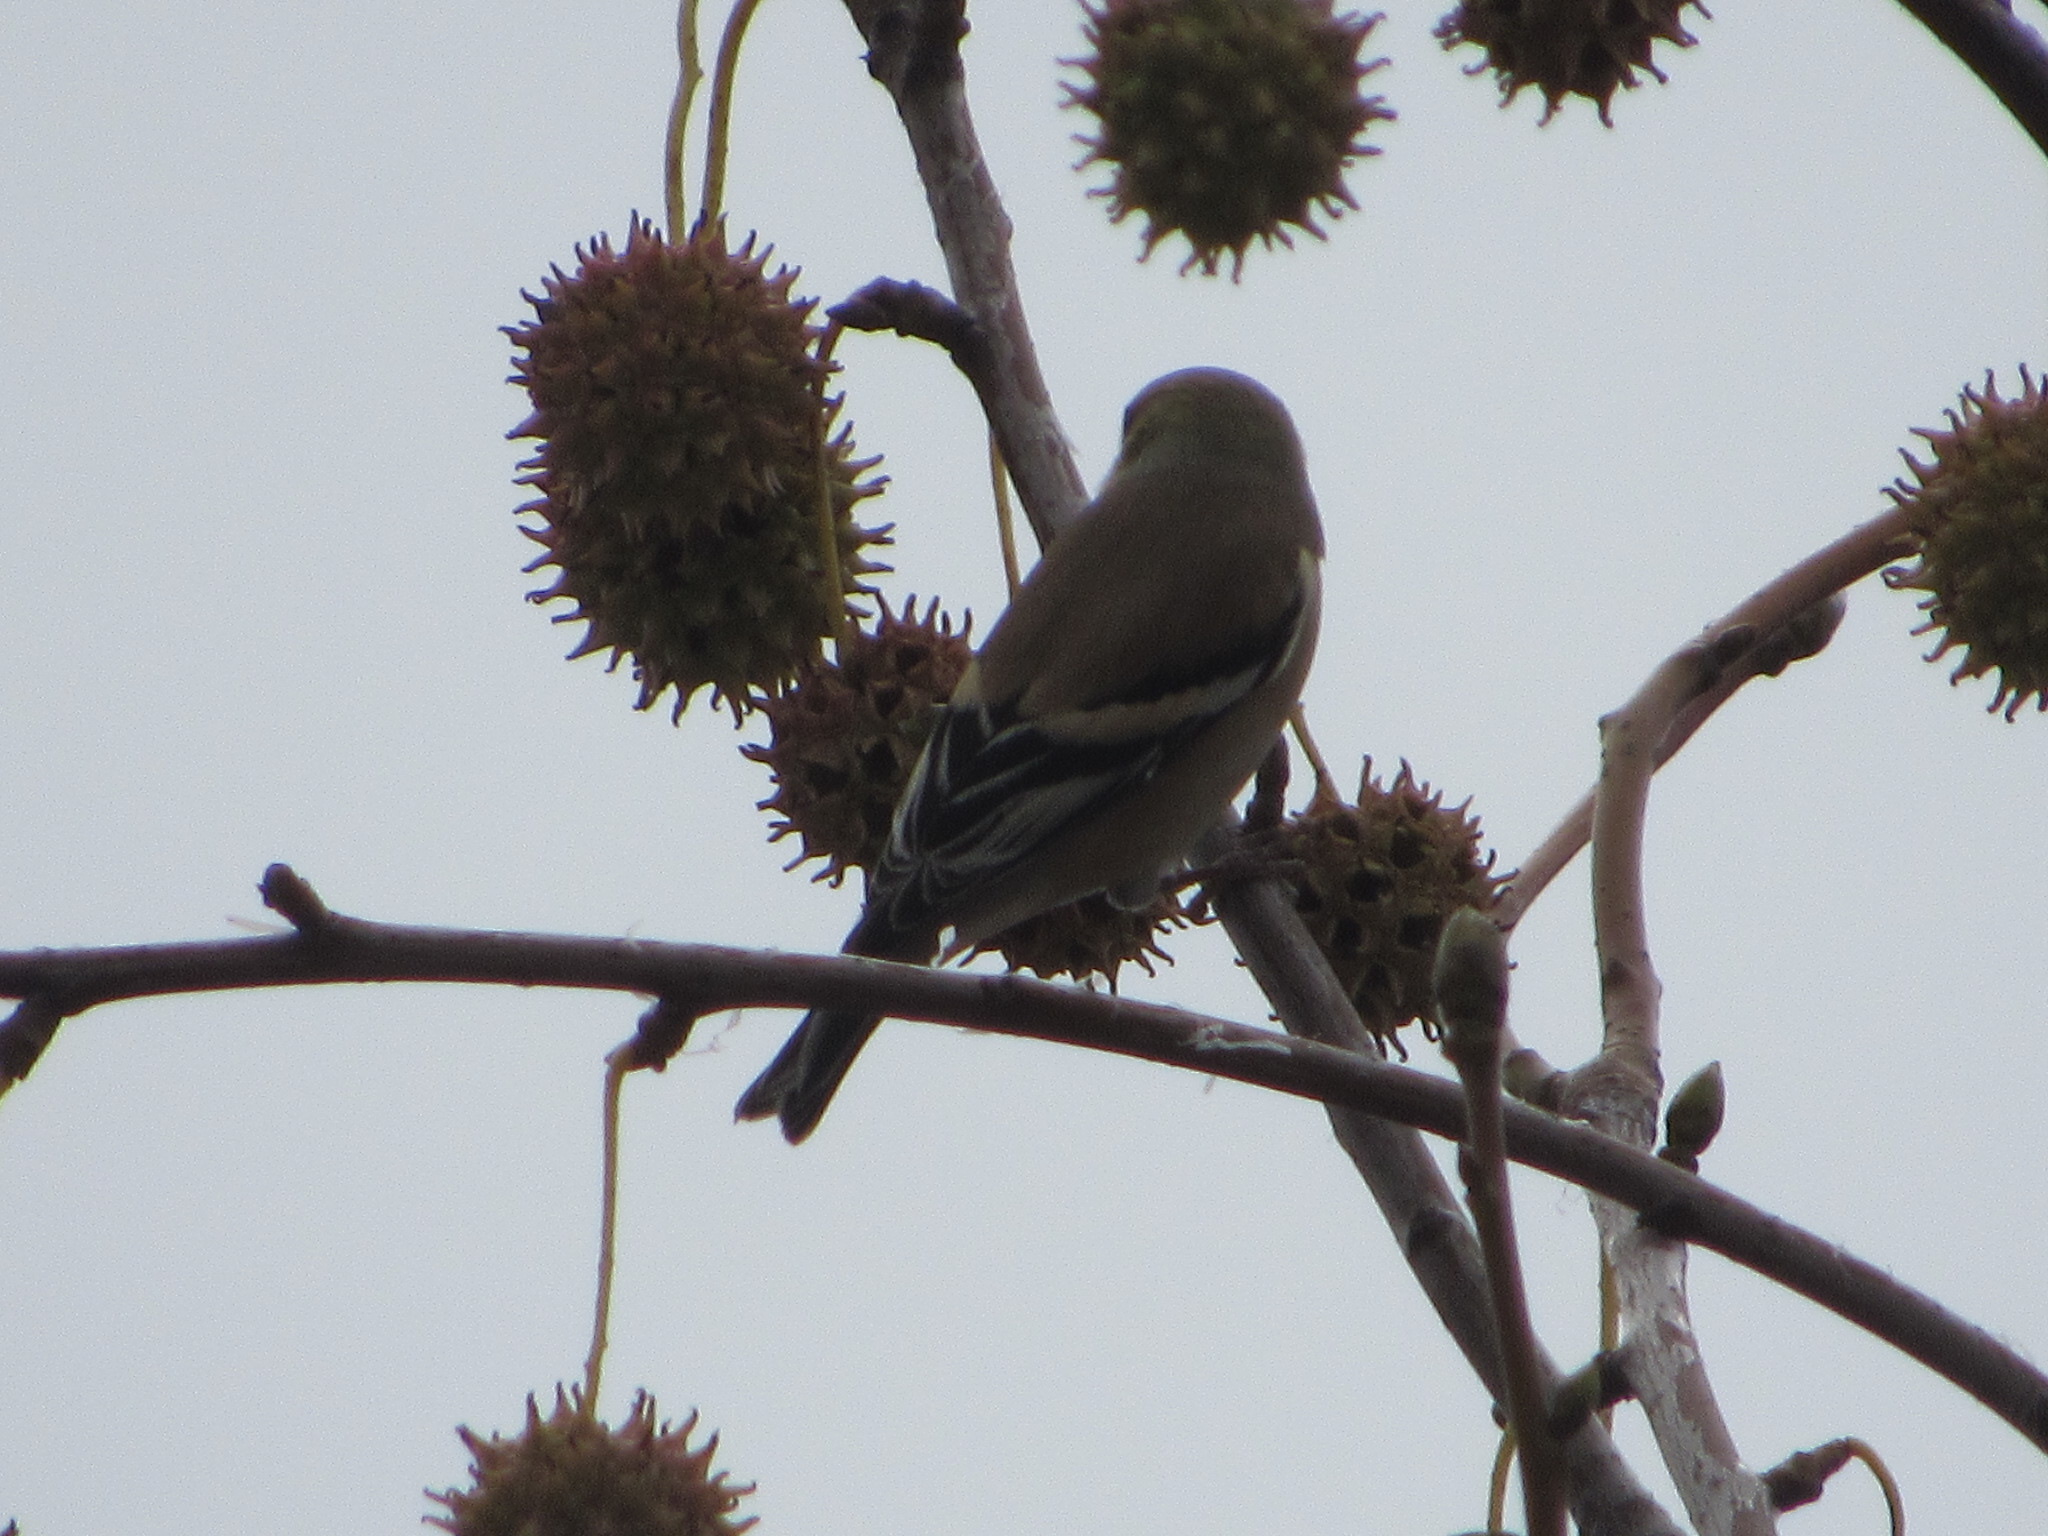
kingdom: Animalia
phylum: Chordata
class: Aves
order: Passeriformes
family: Fringillidae
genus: Spinus
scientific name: Spinus tristis
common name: American goldfinch
